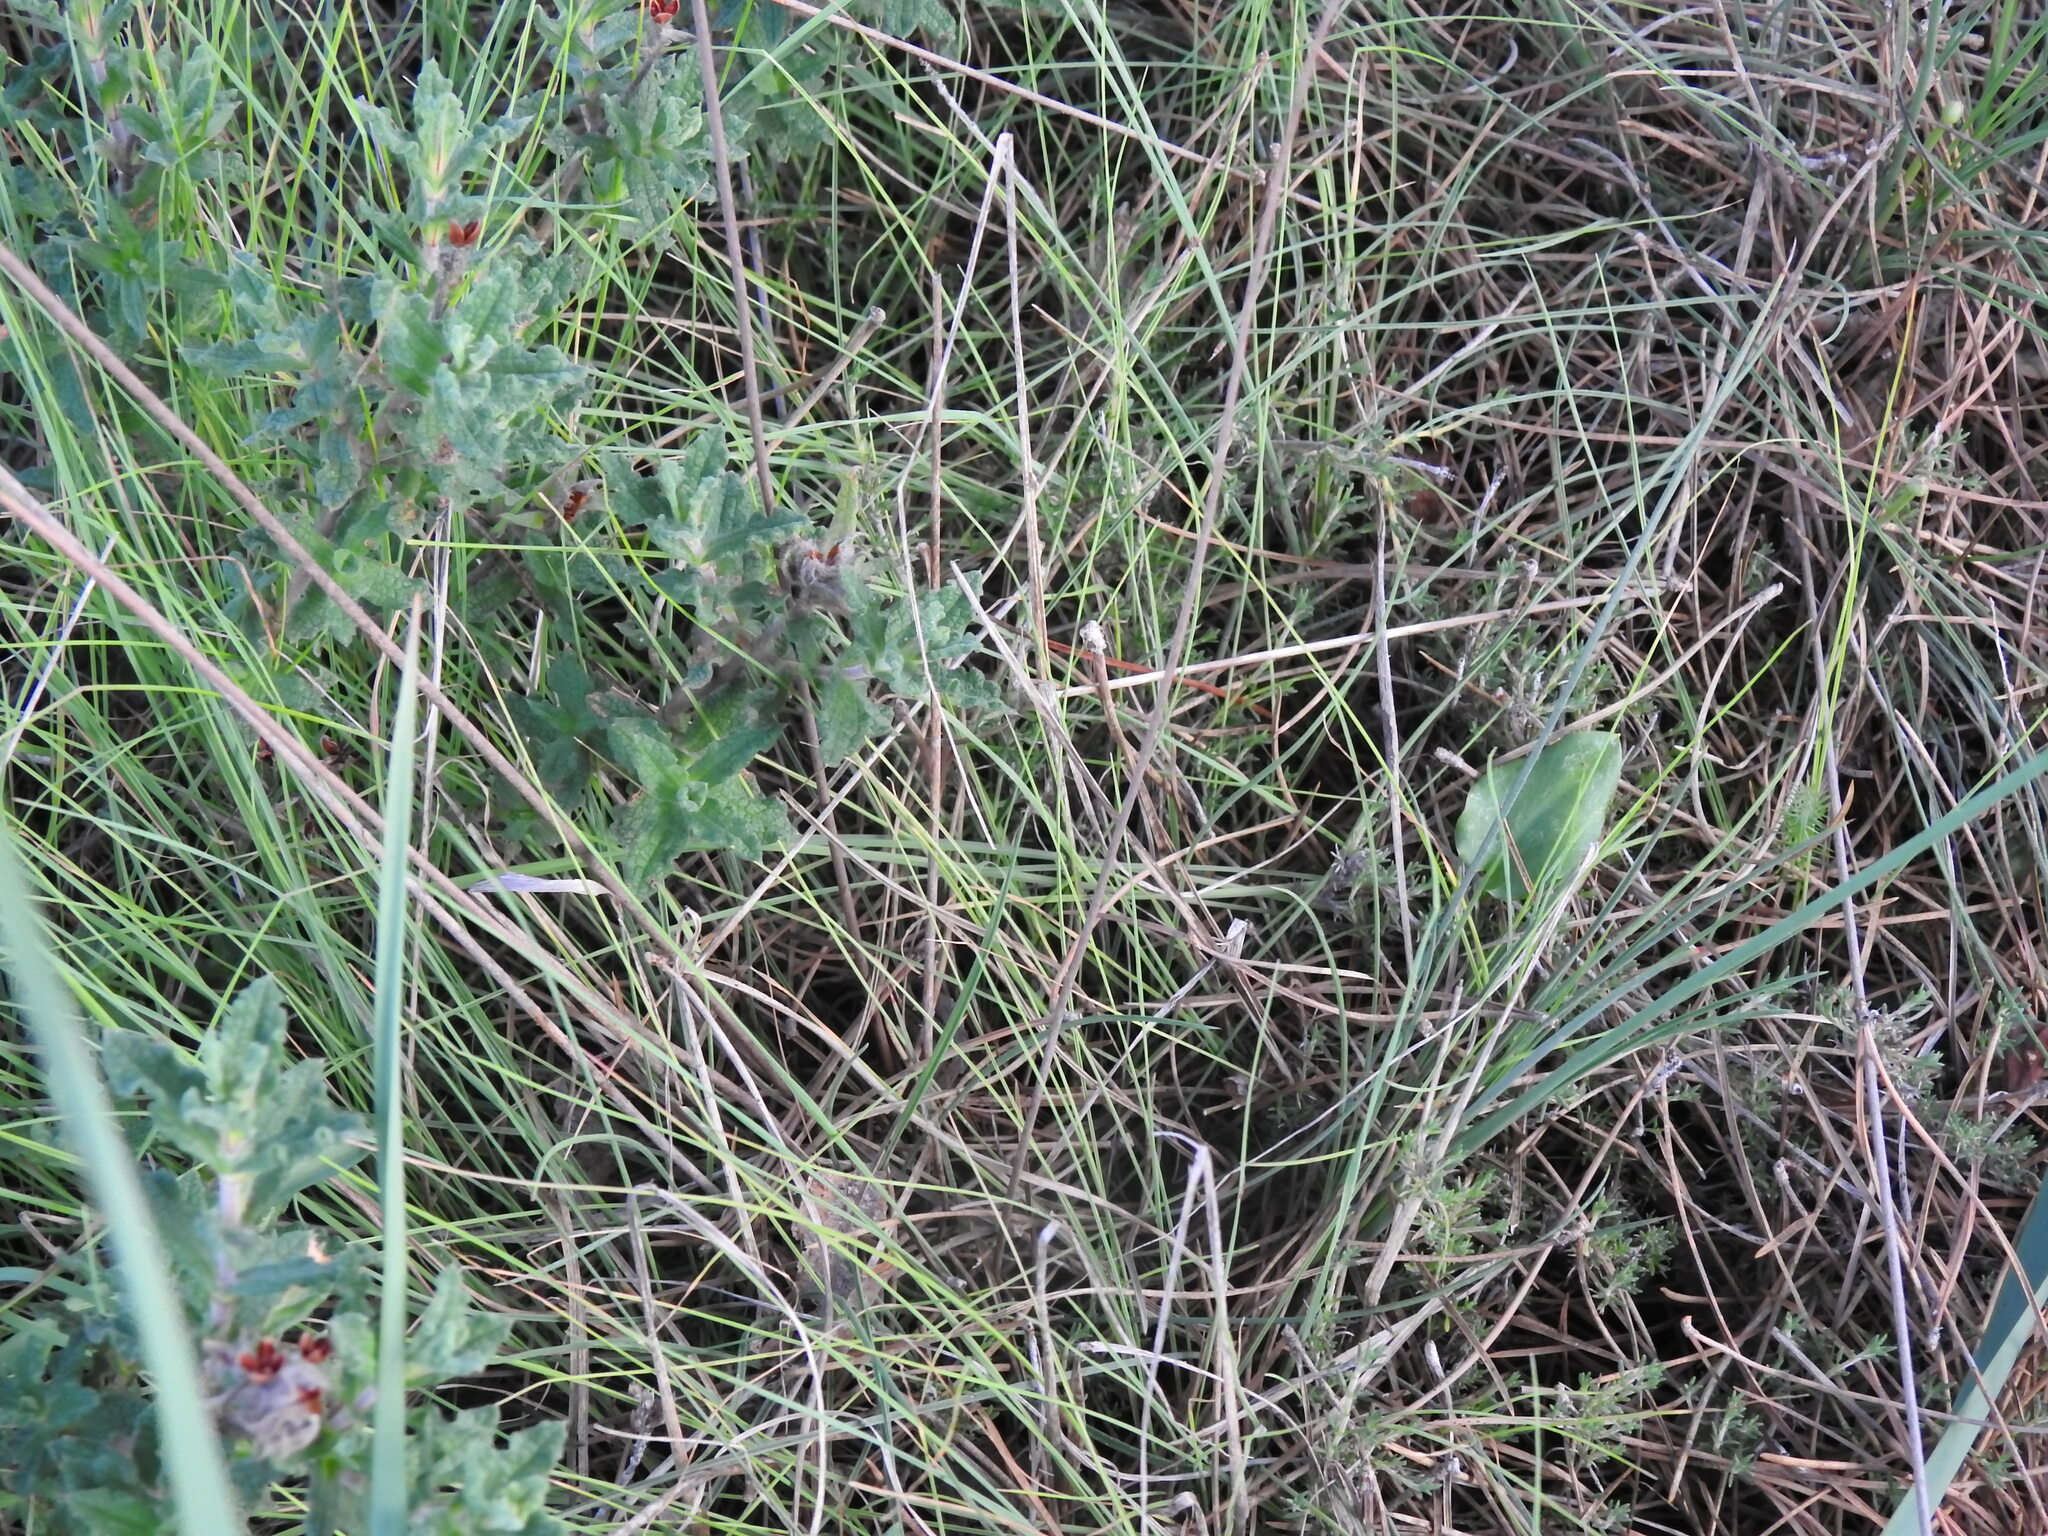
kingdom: Plantae
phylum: Tracheophyta
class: Magnoliopsida
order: Caryophyllales
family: Plumbaginaceae
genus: Armeria
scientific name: Armeria macrophylla
